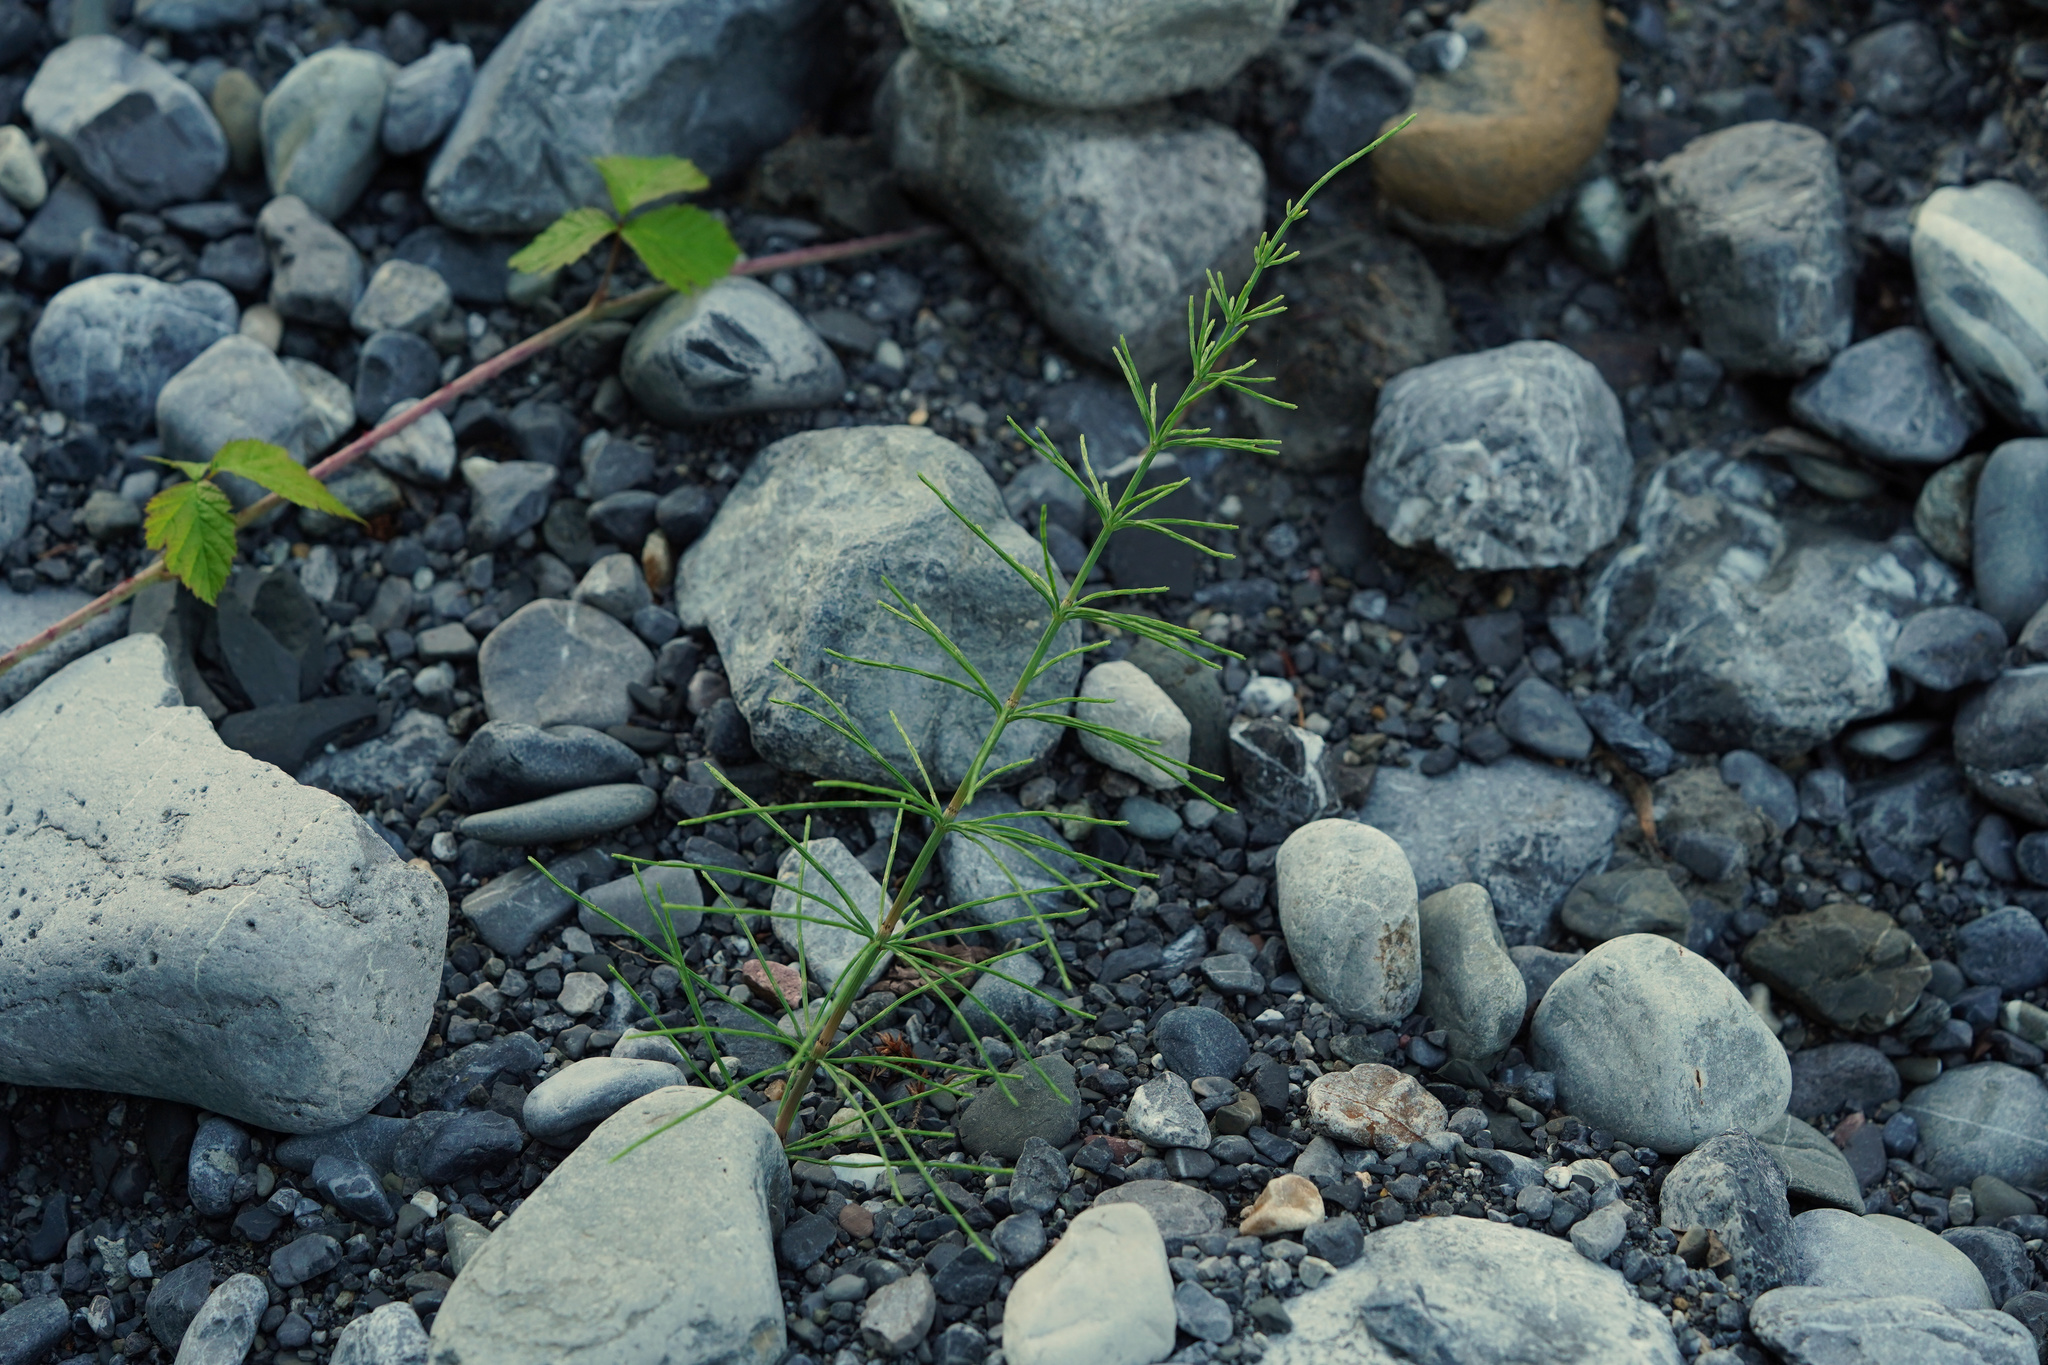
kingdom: Plantae
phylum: Tracheophyta
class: Polypodiopsida
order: Equisetales
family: Equisetaceae
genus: Equisetum
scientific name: Equisetum arvense
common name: Field horsetail
